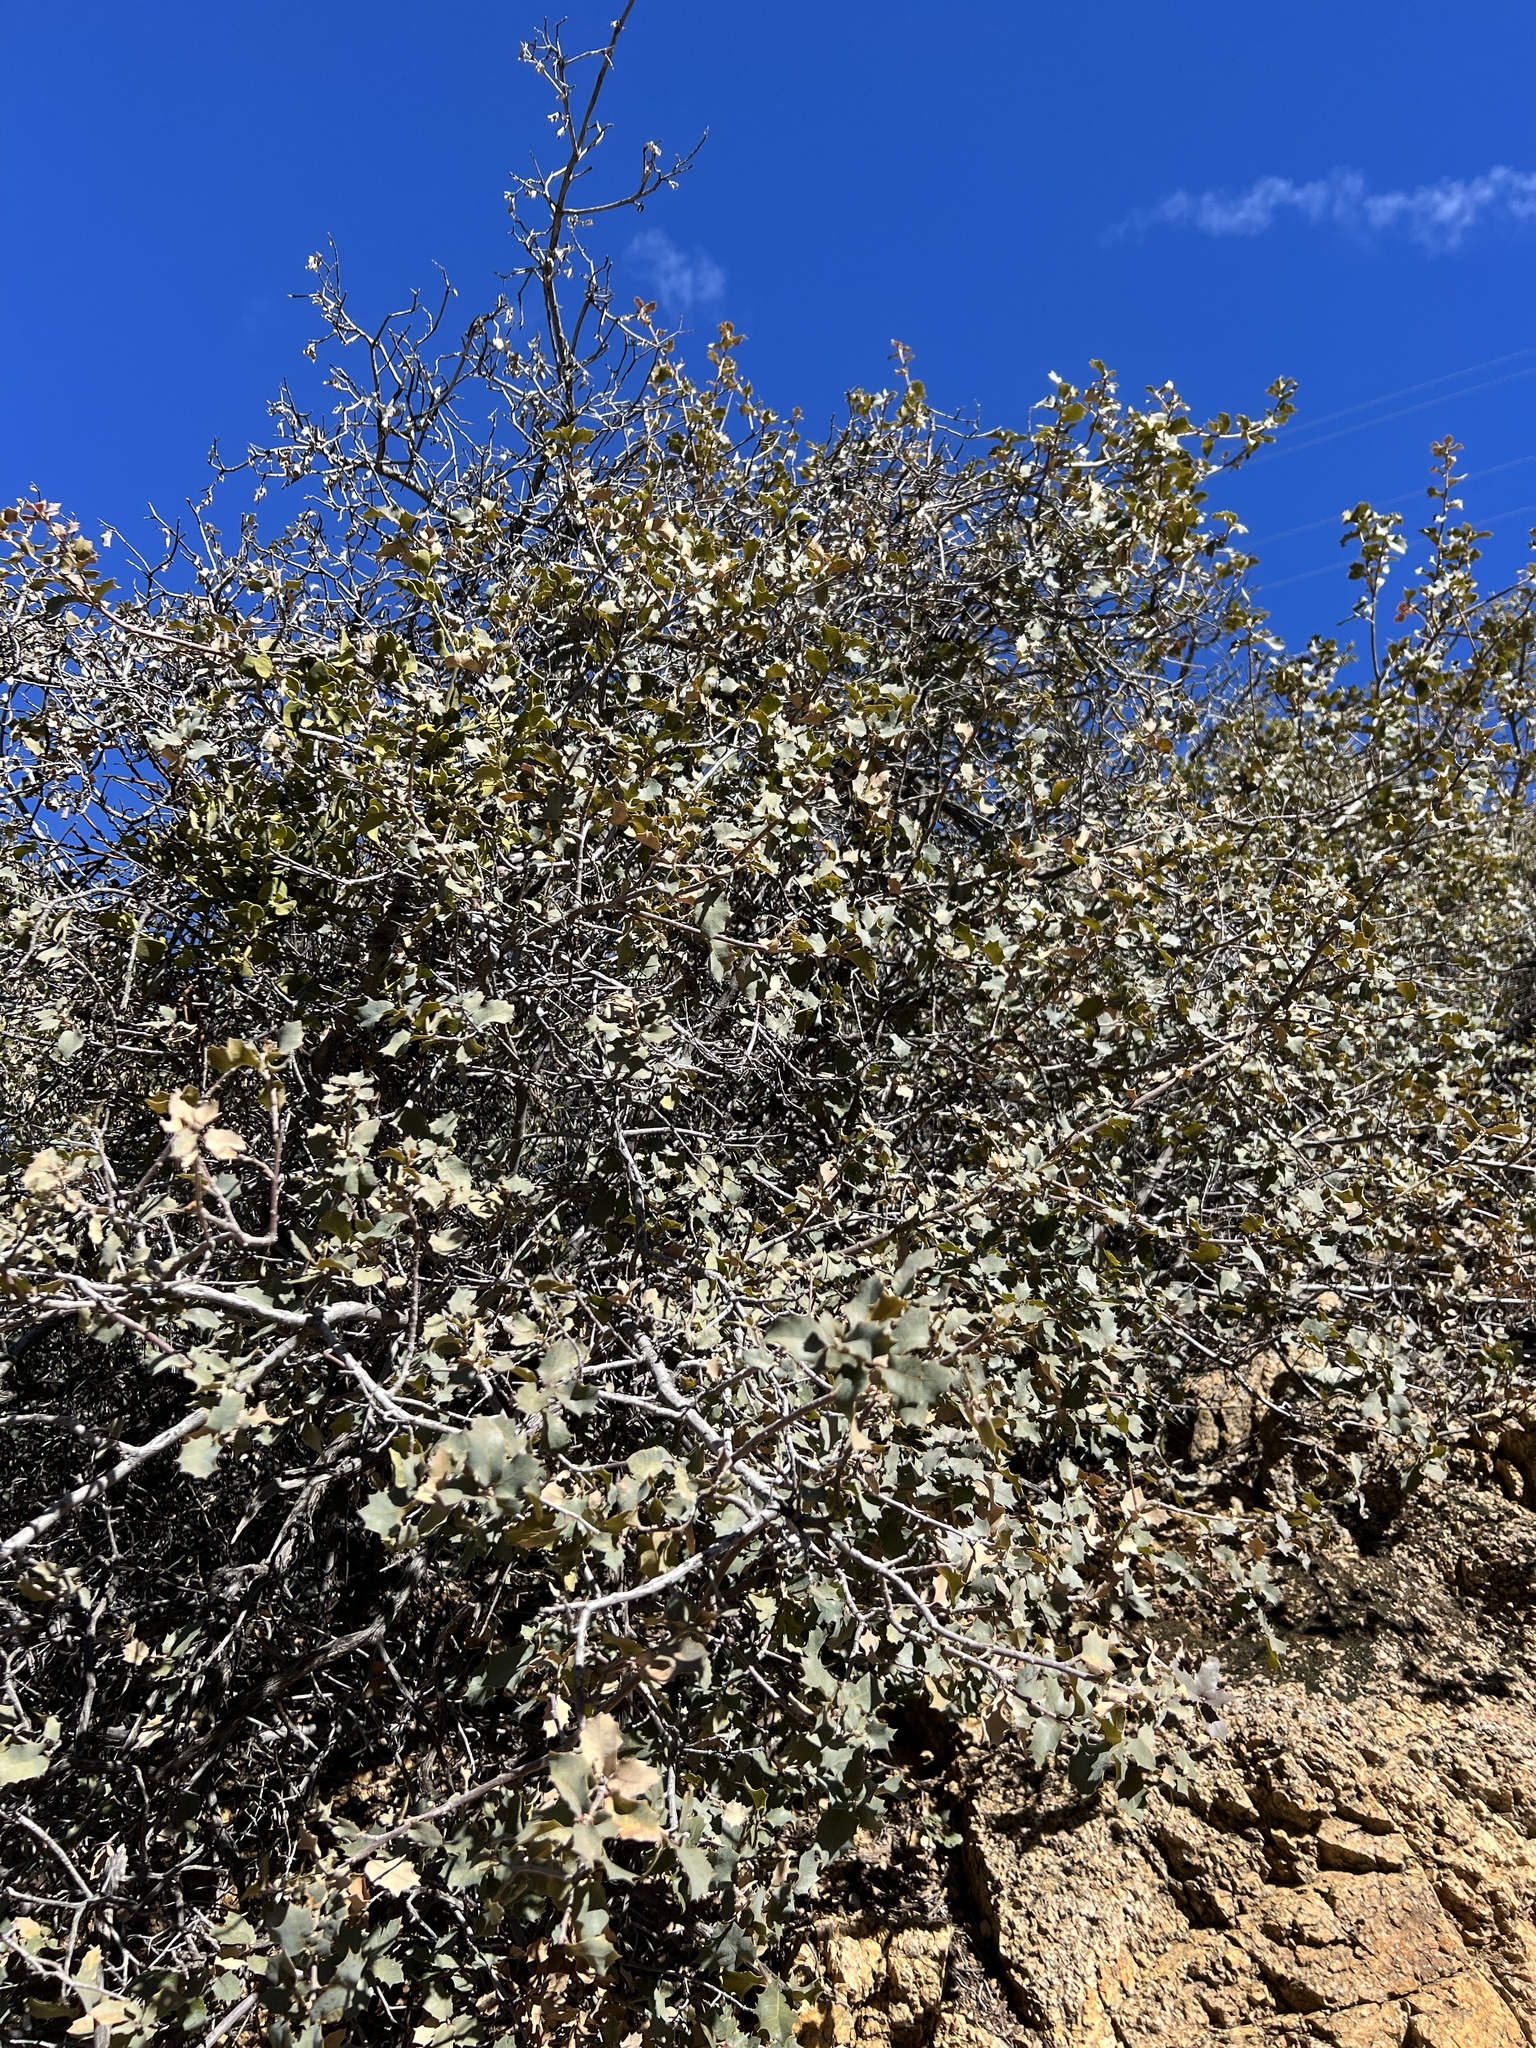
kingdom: Plantae
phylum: Tracheophyta
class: Magnoliopsida
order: Fagales
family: Fagaceae
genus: Quercus
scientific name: Quercus turbinella
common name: Sonoran scrub oak
